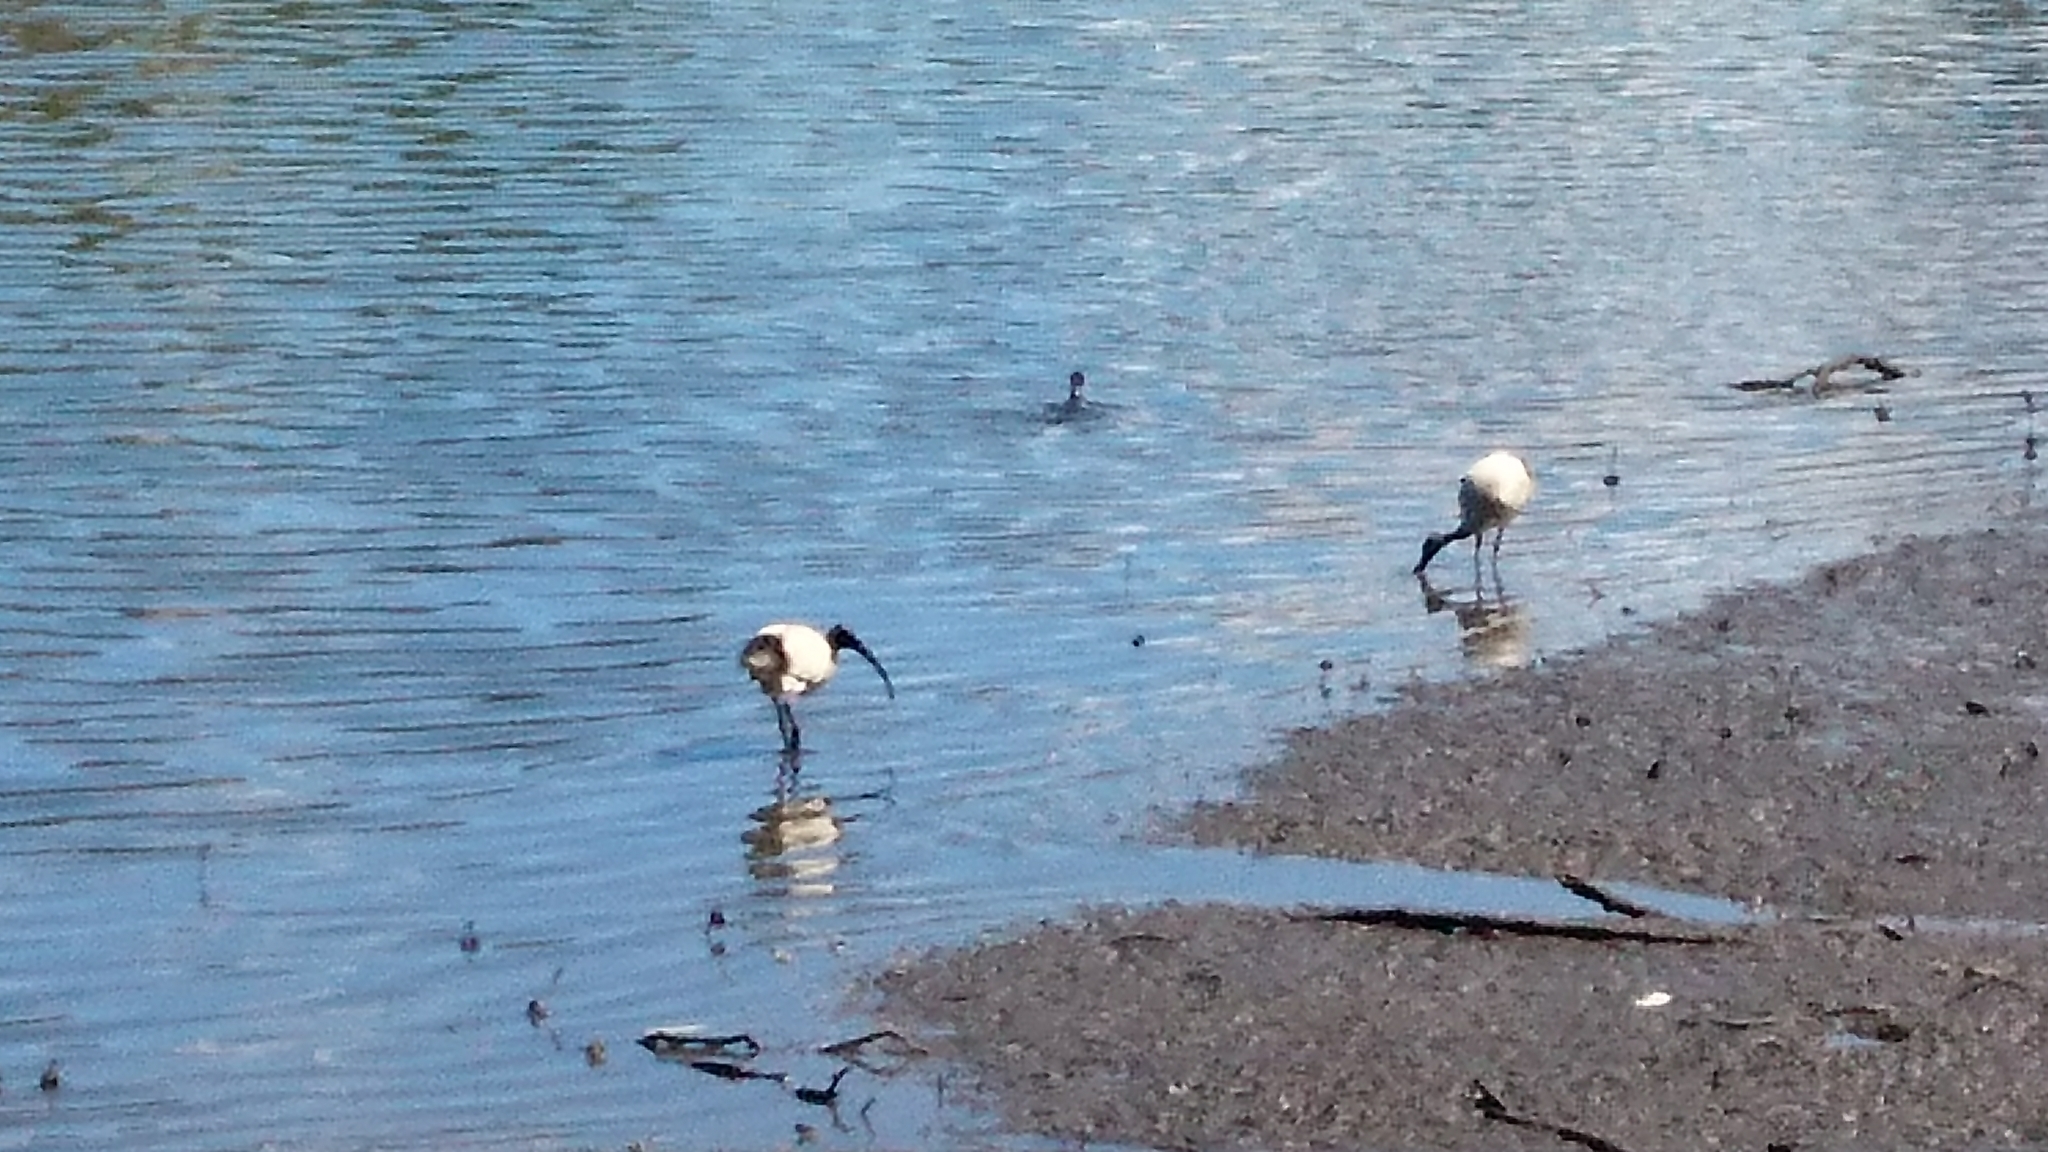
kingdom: Animalia
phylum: Chordata
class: Aves
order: Pelecaniformes
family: Threskiornithidae
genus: Threskiornis
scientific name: Threskiornis molucca
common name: Australian white ibis
